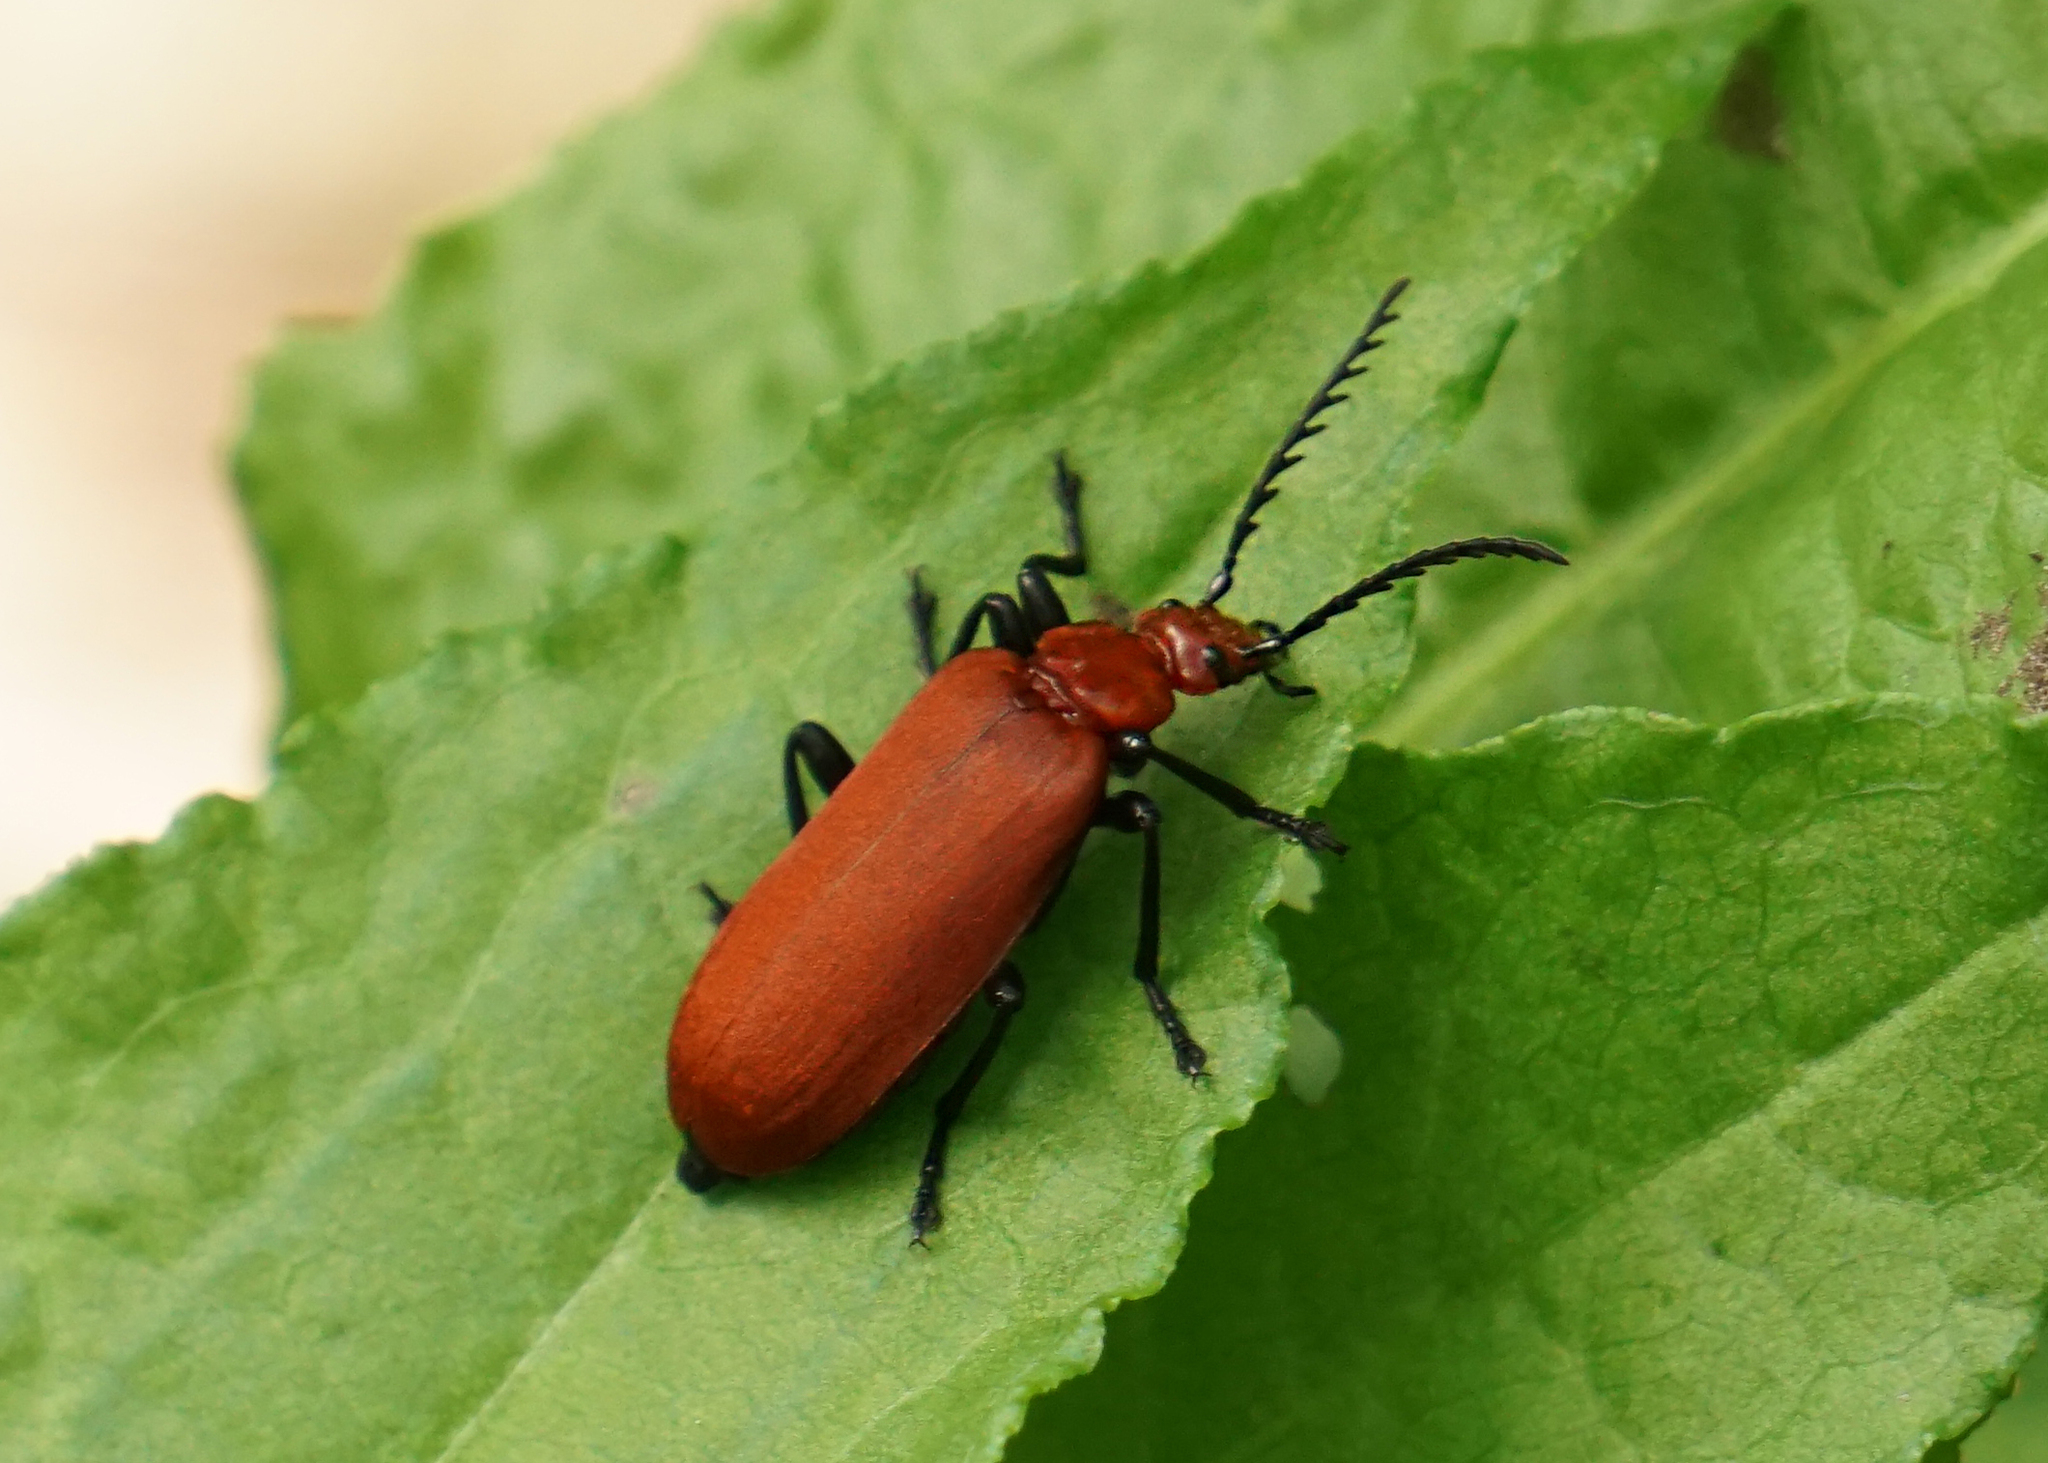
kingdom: Animalia
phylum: Arthropoda
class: Insecta
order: Coleoptera
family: Pyrochroidae
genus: Pyrochroa
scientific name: Pyrochroa serraticornis
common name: Red-headed cardinal beetle
